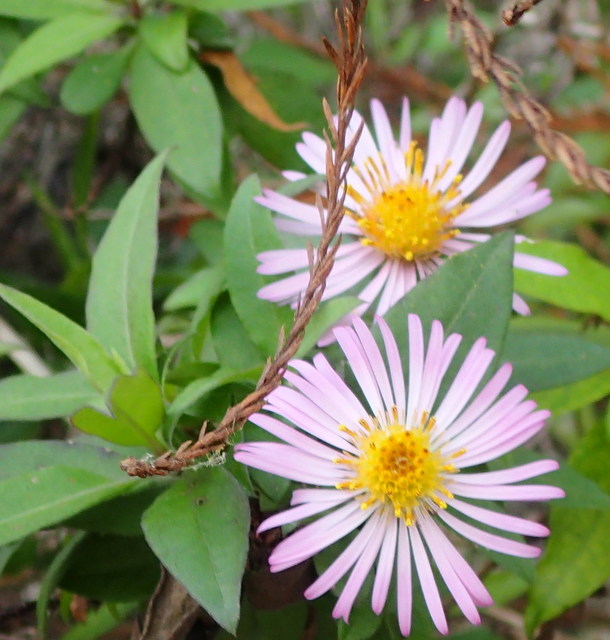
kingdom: Plantae
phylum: Tracheophyta
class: Magnoliopsida
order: Asterales
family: Asteraceae
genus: Ampelaster
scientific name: Ampelaster carolinianus
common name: Climbing aster
